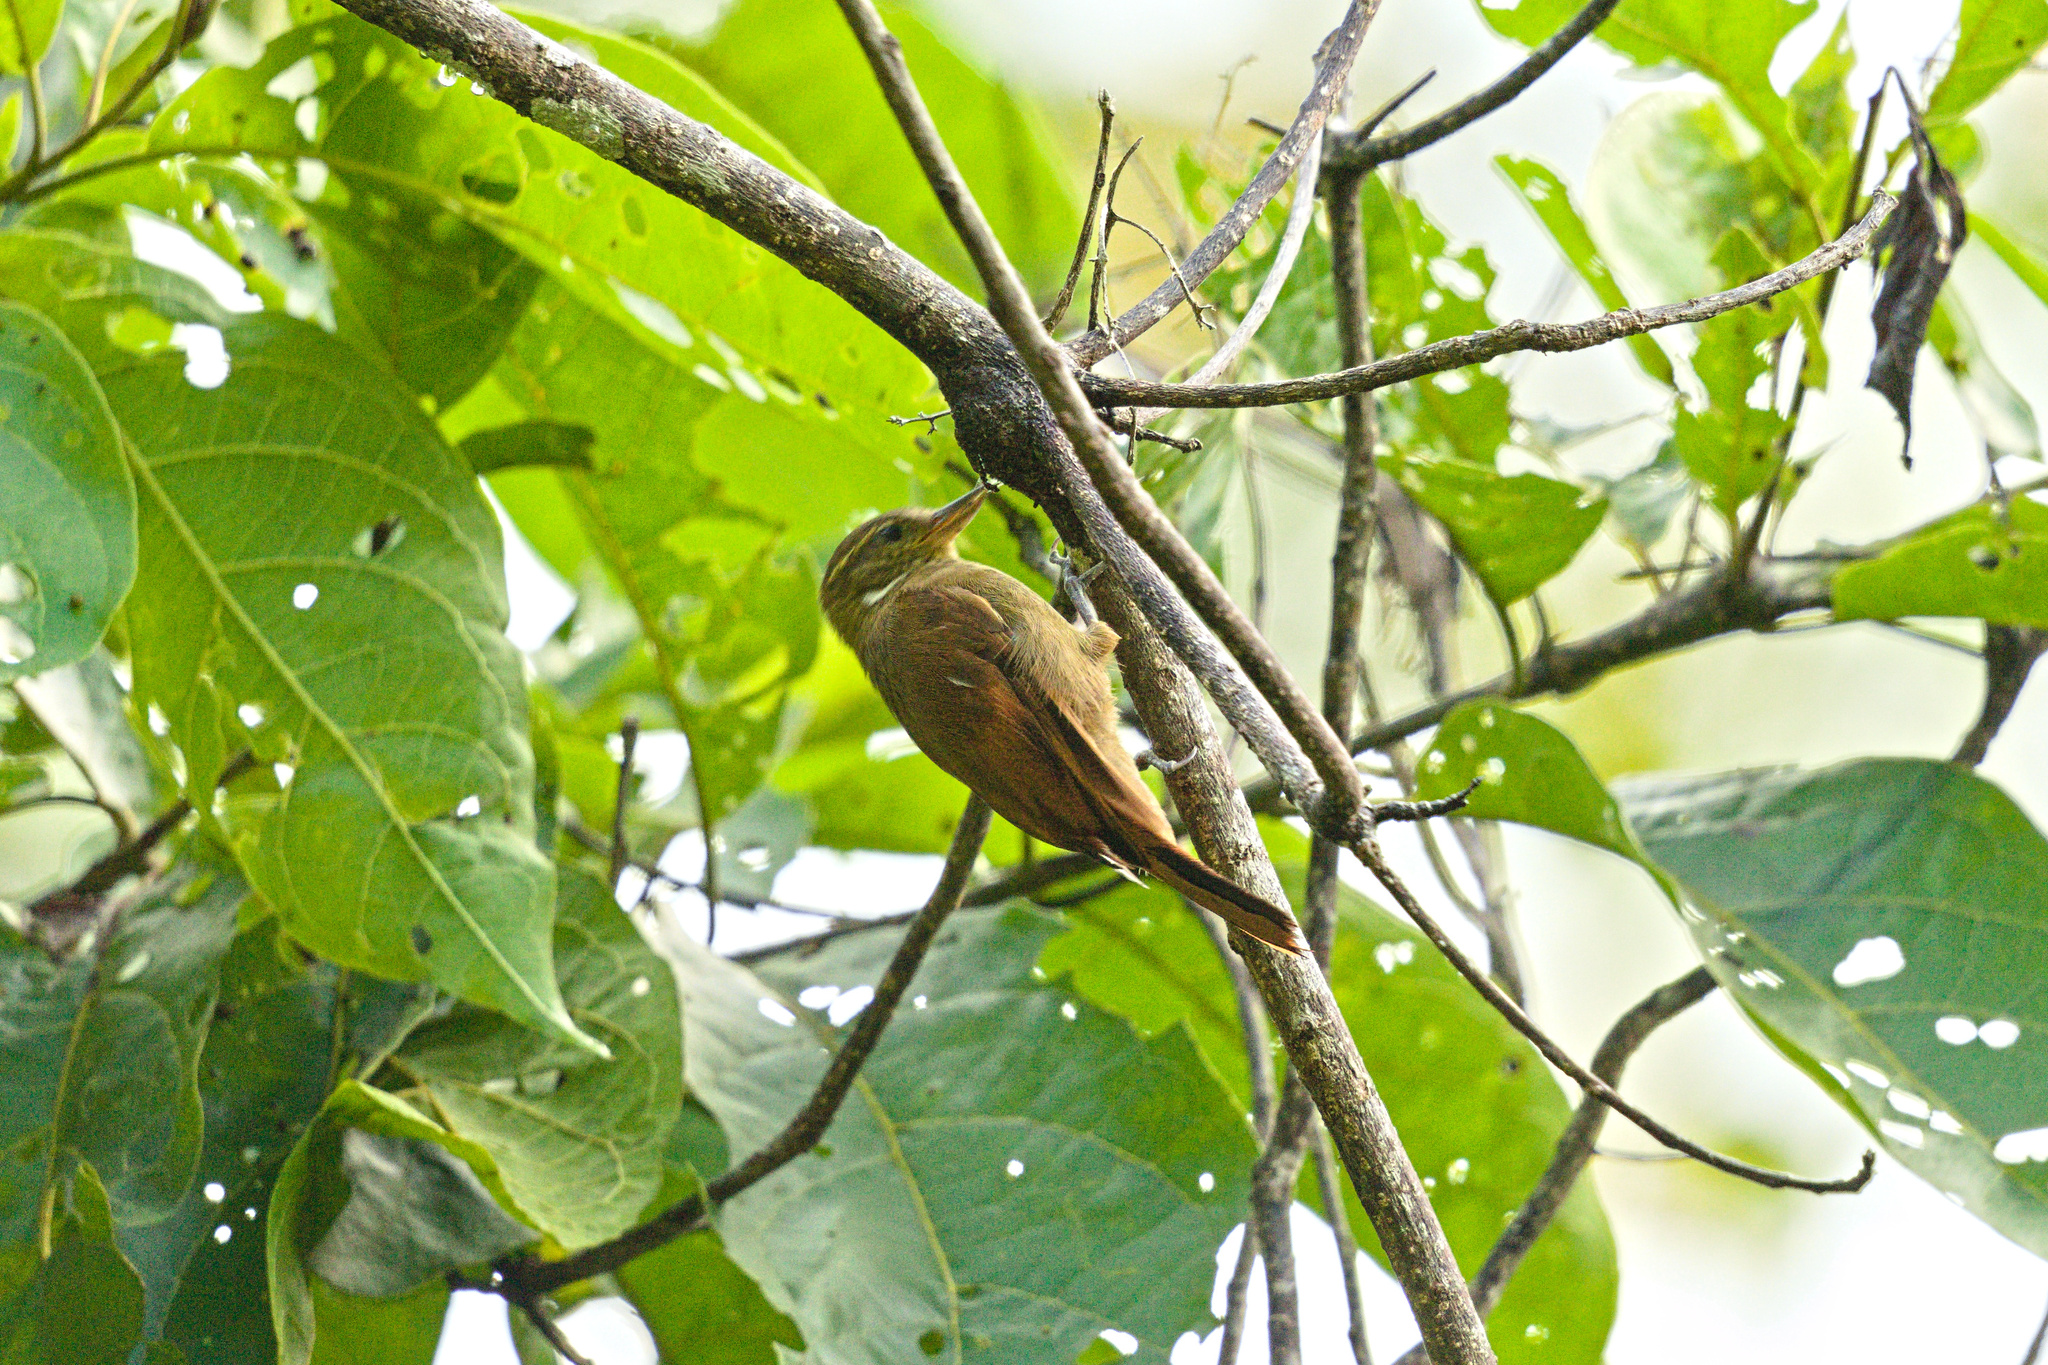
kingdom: Animalia
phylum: Chordata
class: Aves
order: Passeriformes
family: Furnariidae
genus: Xenops
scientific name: Xenops minutus
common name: Plain xenops
